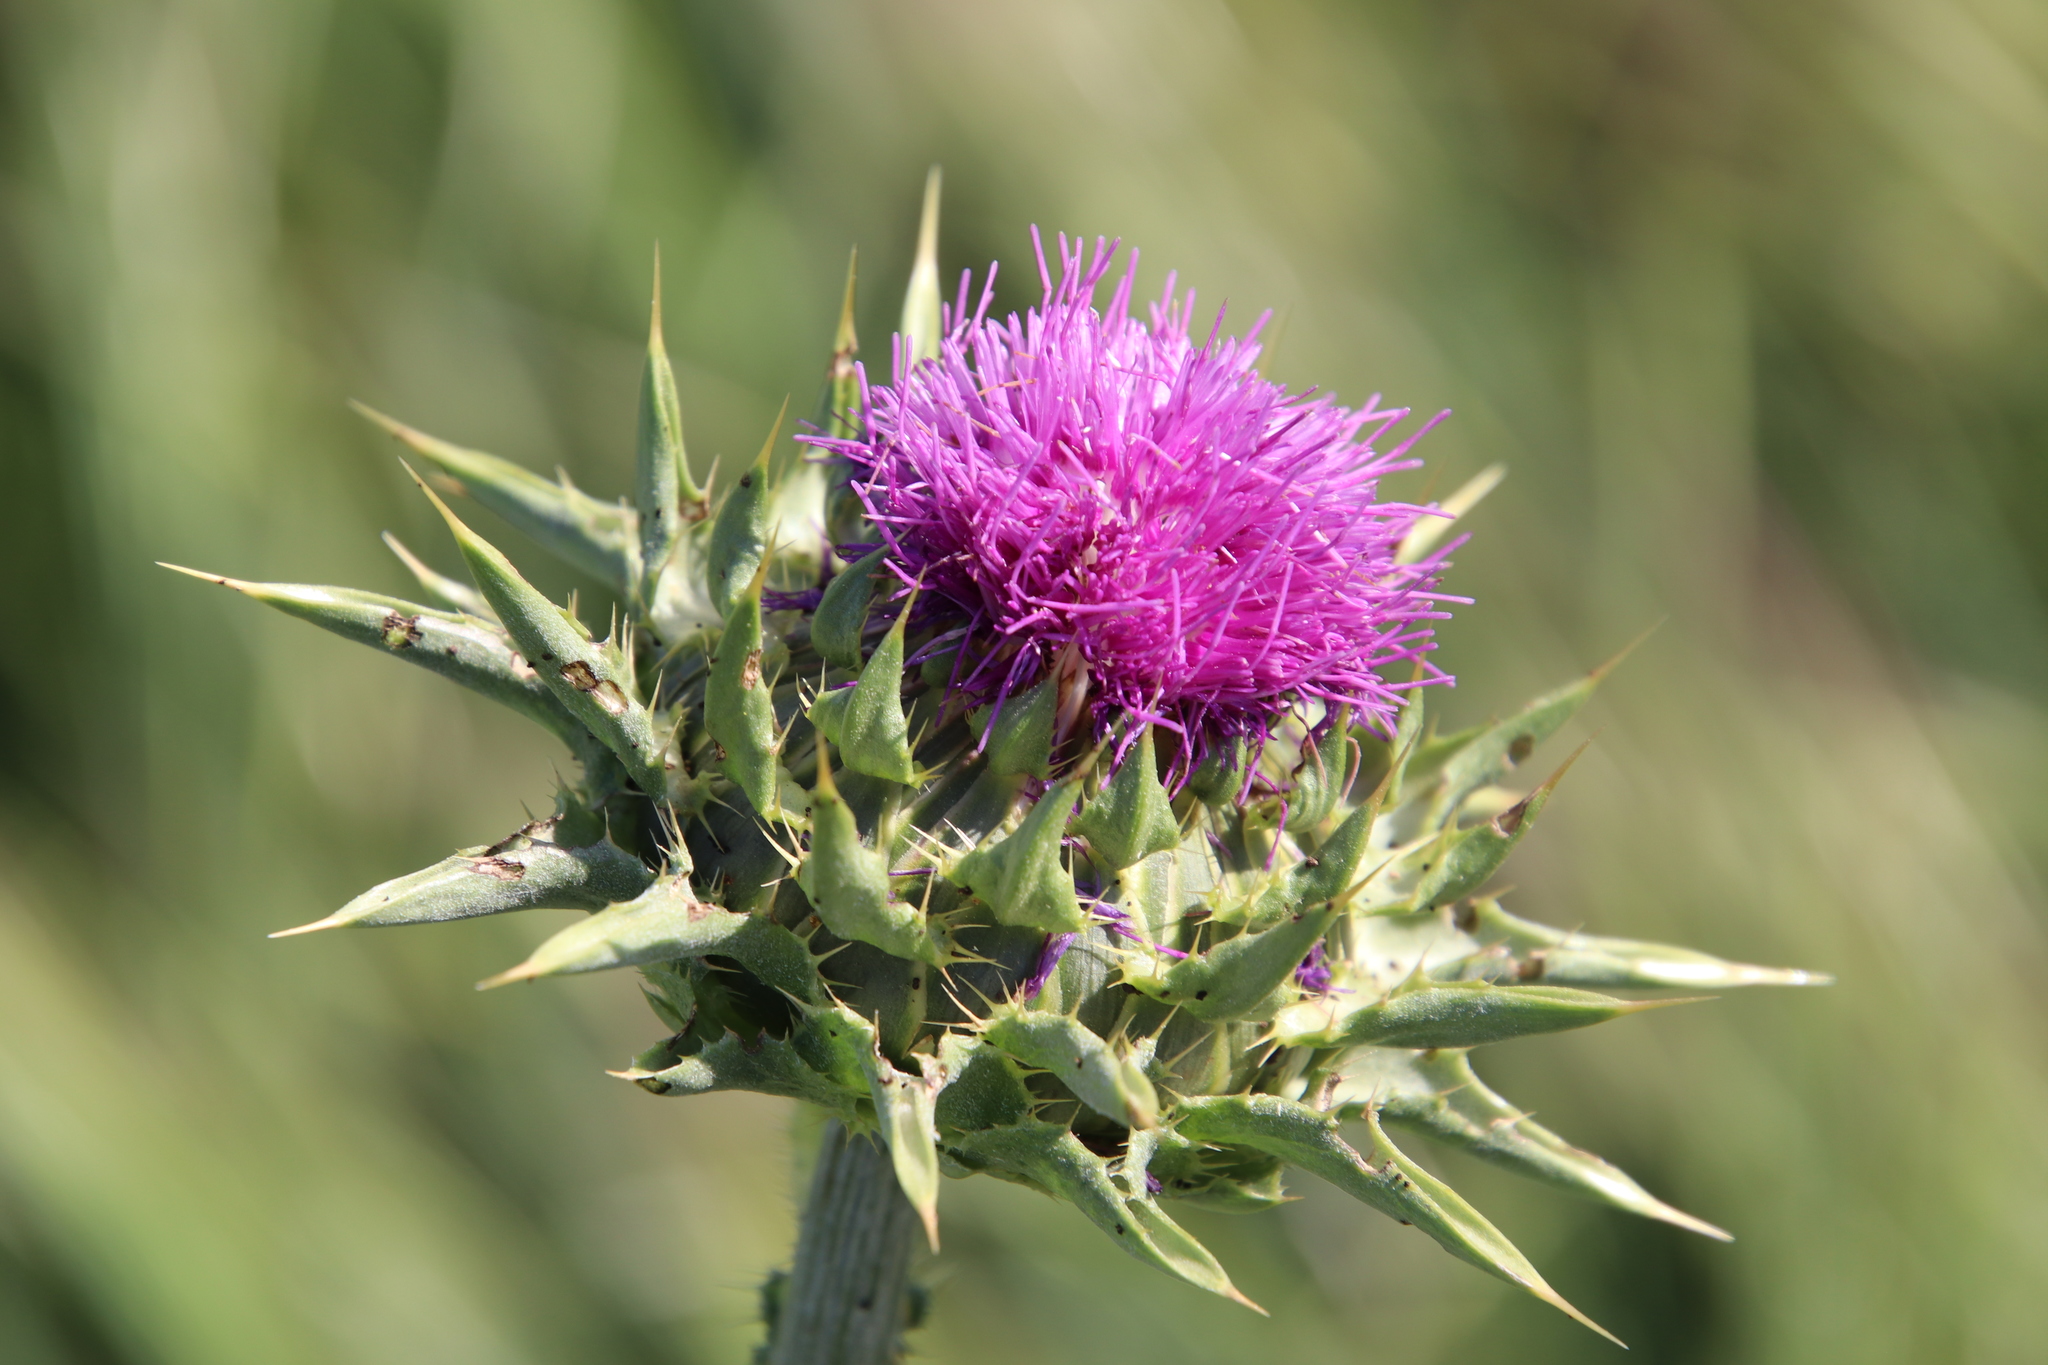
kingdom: Plantae
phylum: Tracheophyta
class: Magnoliopsida
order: Asterales
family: Asteraceae
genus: Silybum
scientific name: Silybum marianum
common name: Milk thistle
